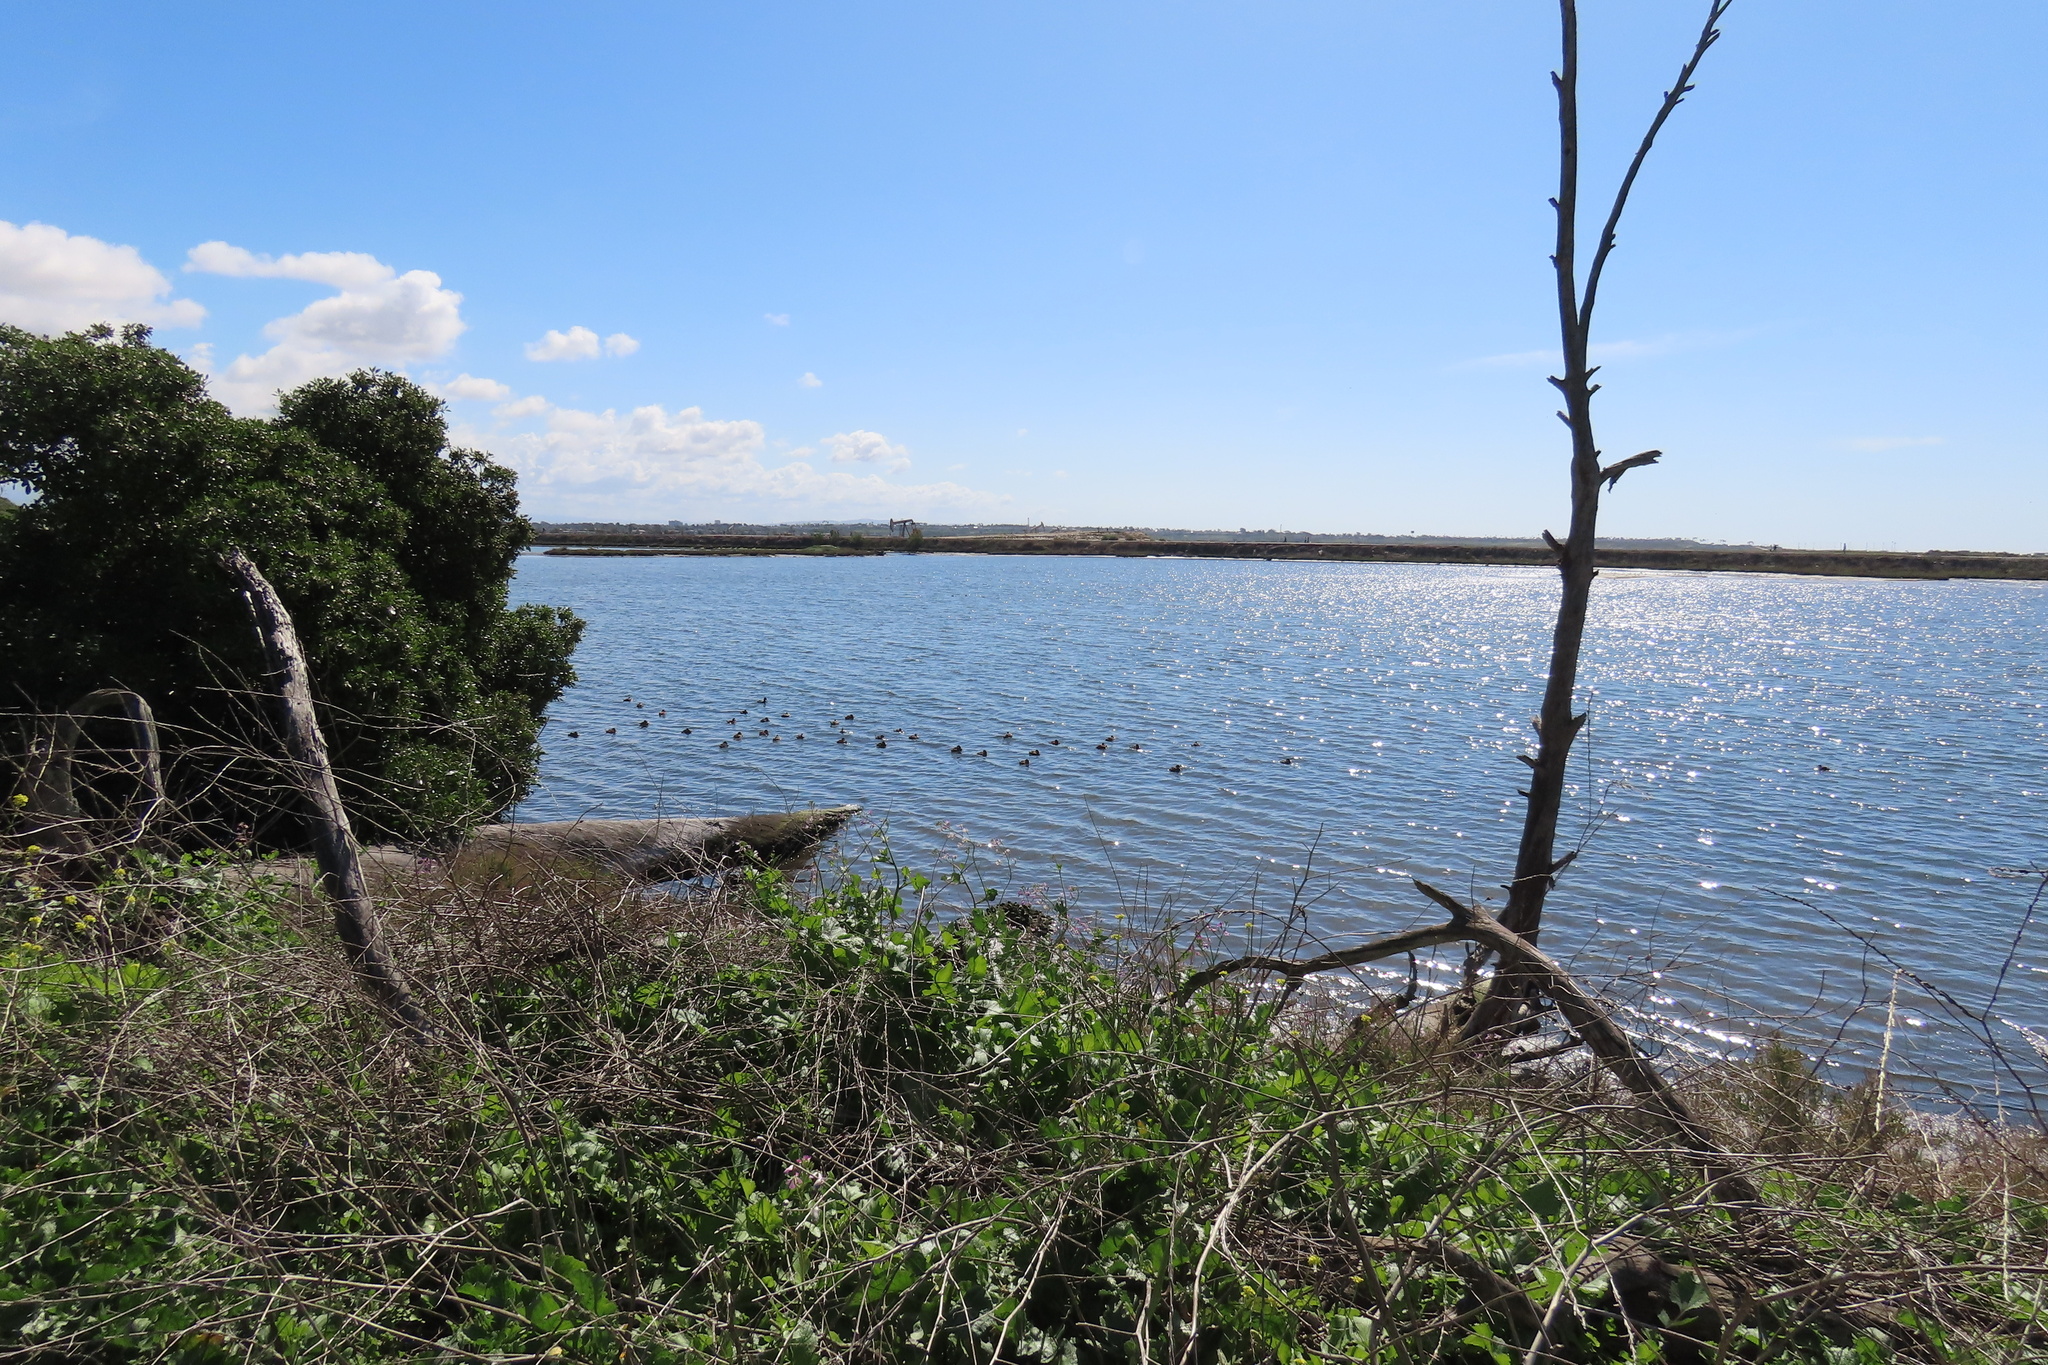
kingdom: Animalia
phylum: Chordata
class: Aves
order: Anseriformes
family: Anatidae
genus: Oxyura
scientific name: Oxyura jamaicensis
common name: Ruddy duck
